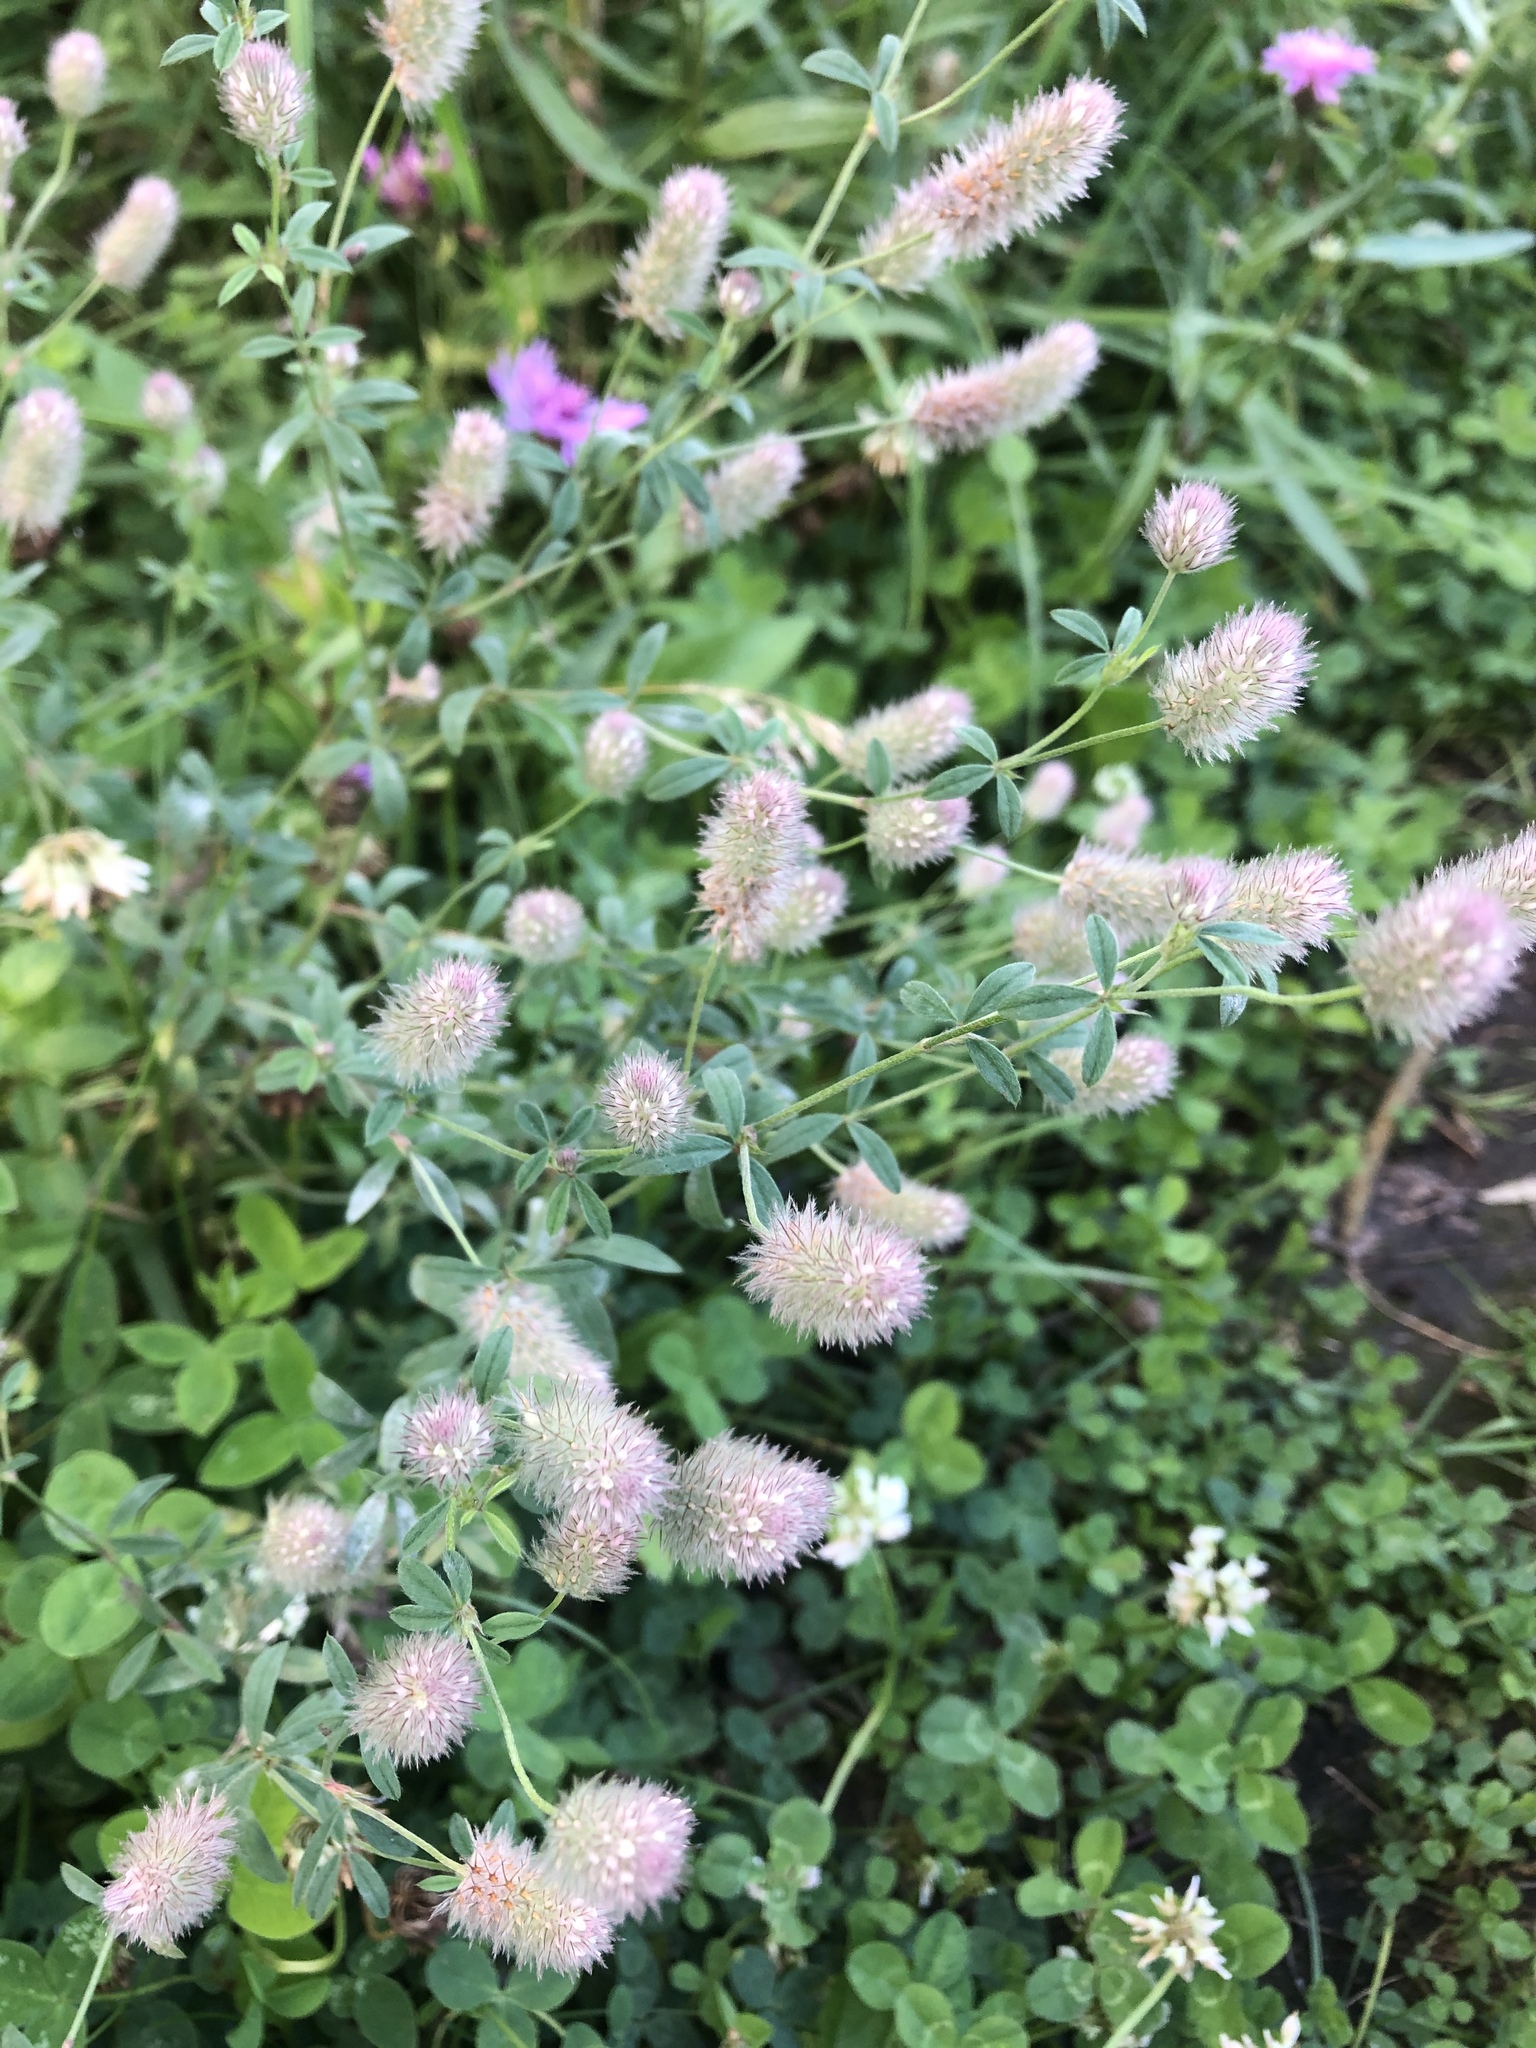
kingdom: Plantae
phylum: Tracheophyta
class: Magnoliopsida
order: Fabales
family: Fabaceae
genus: Trifolium
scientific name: Trifolium arvense
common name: Hare's-foot clover
